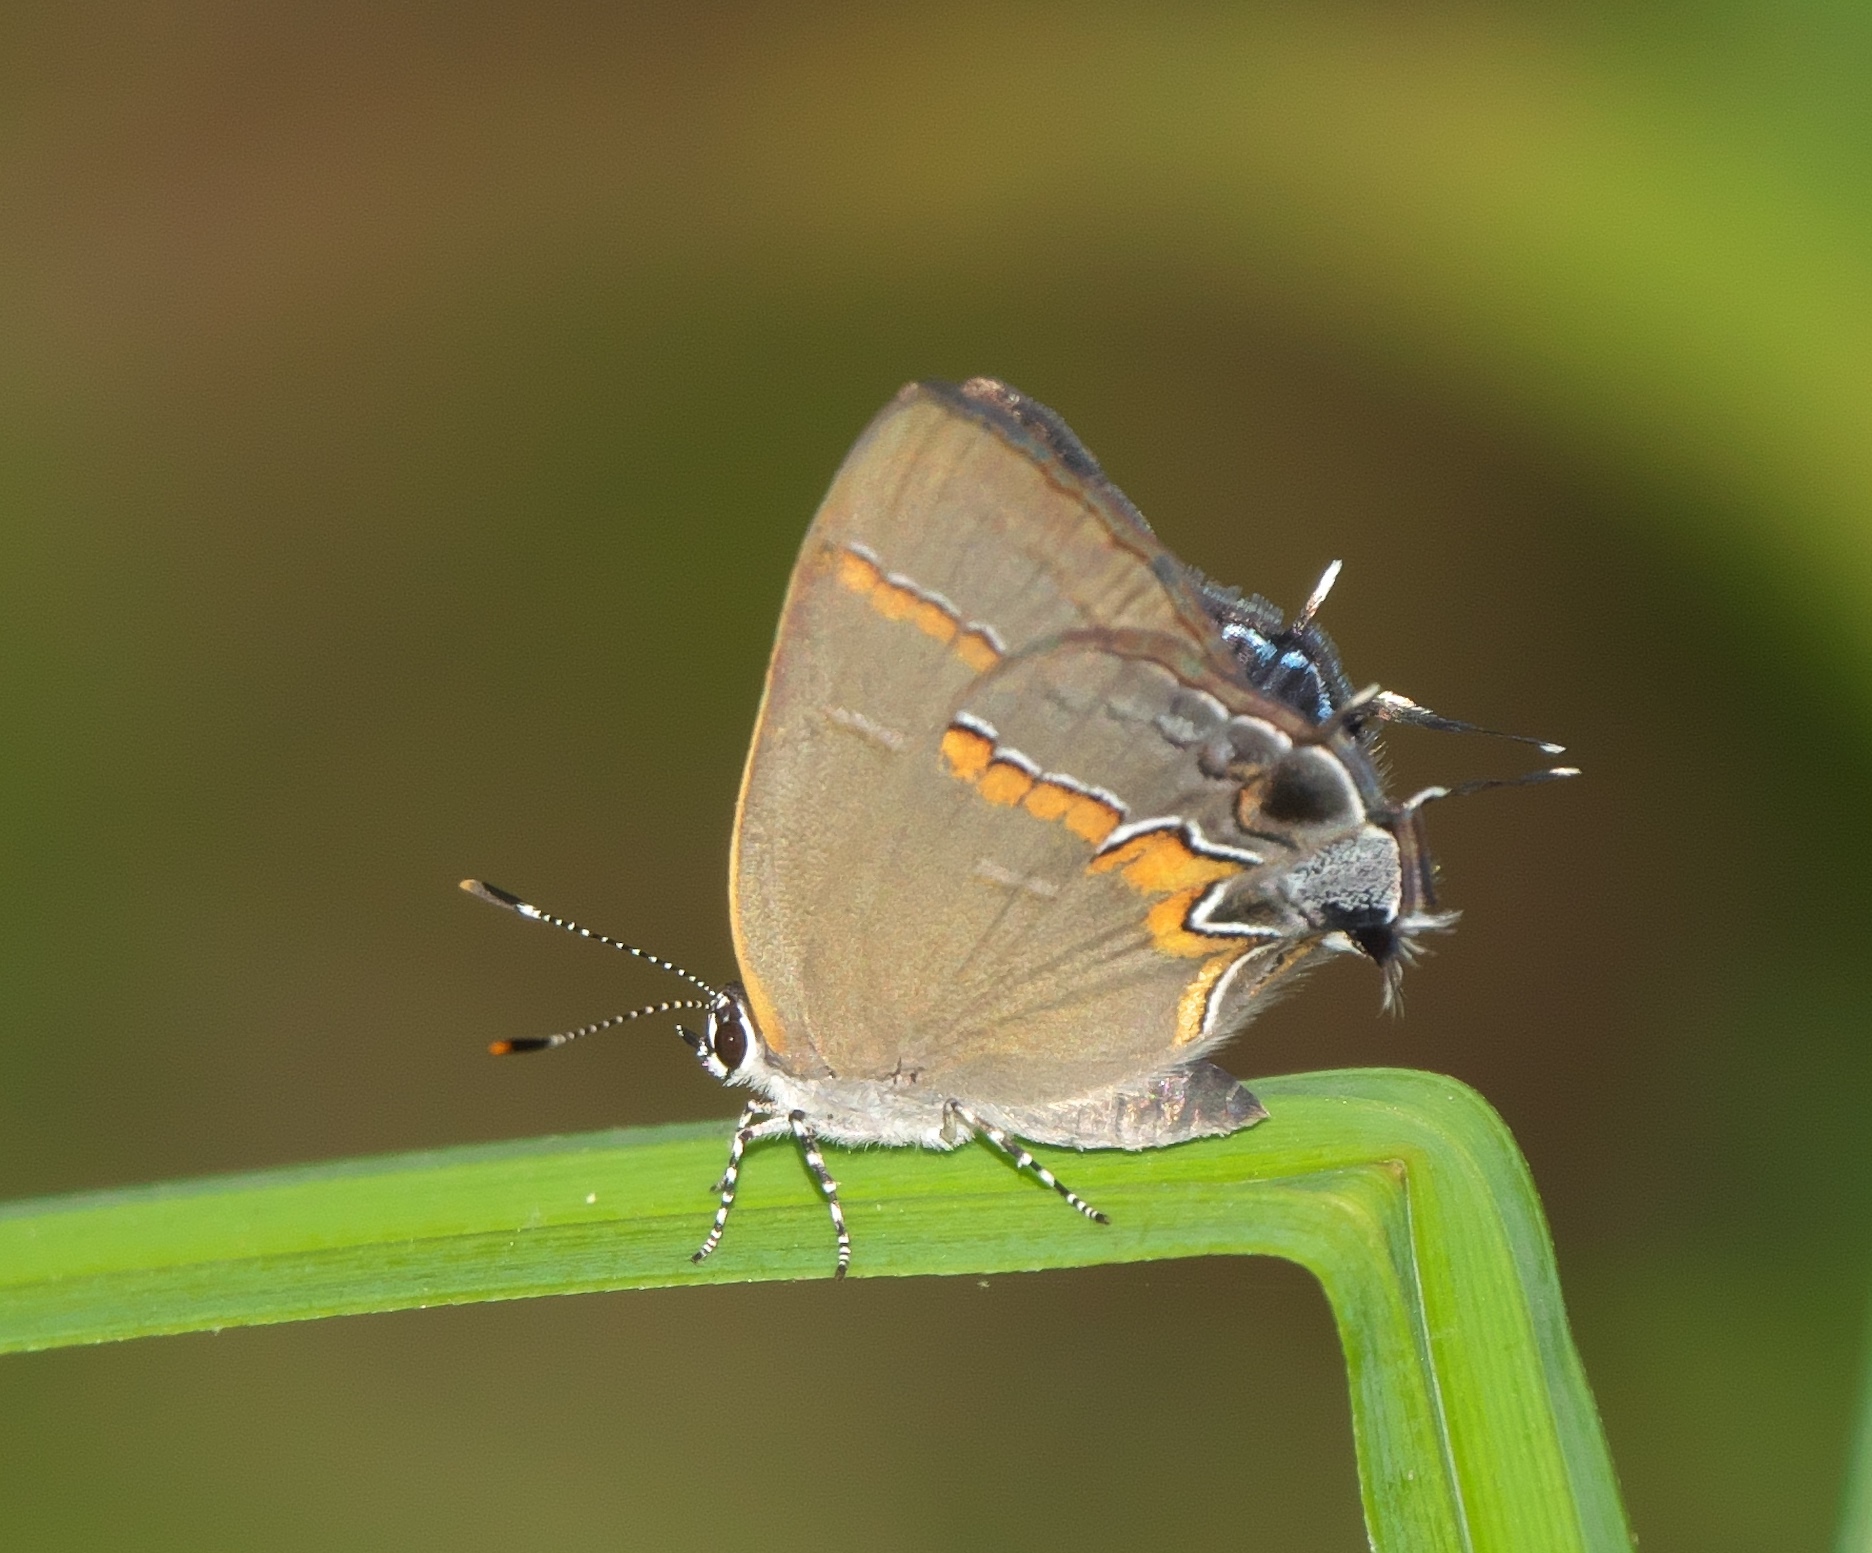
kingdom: Animalia
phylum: Arthropoda
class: Insecta
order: Lepidoptera
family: Lycaenidae
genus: Calycopis
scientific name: Calycopis cecrops
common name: Red-banded hairstreak
